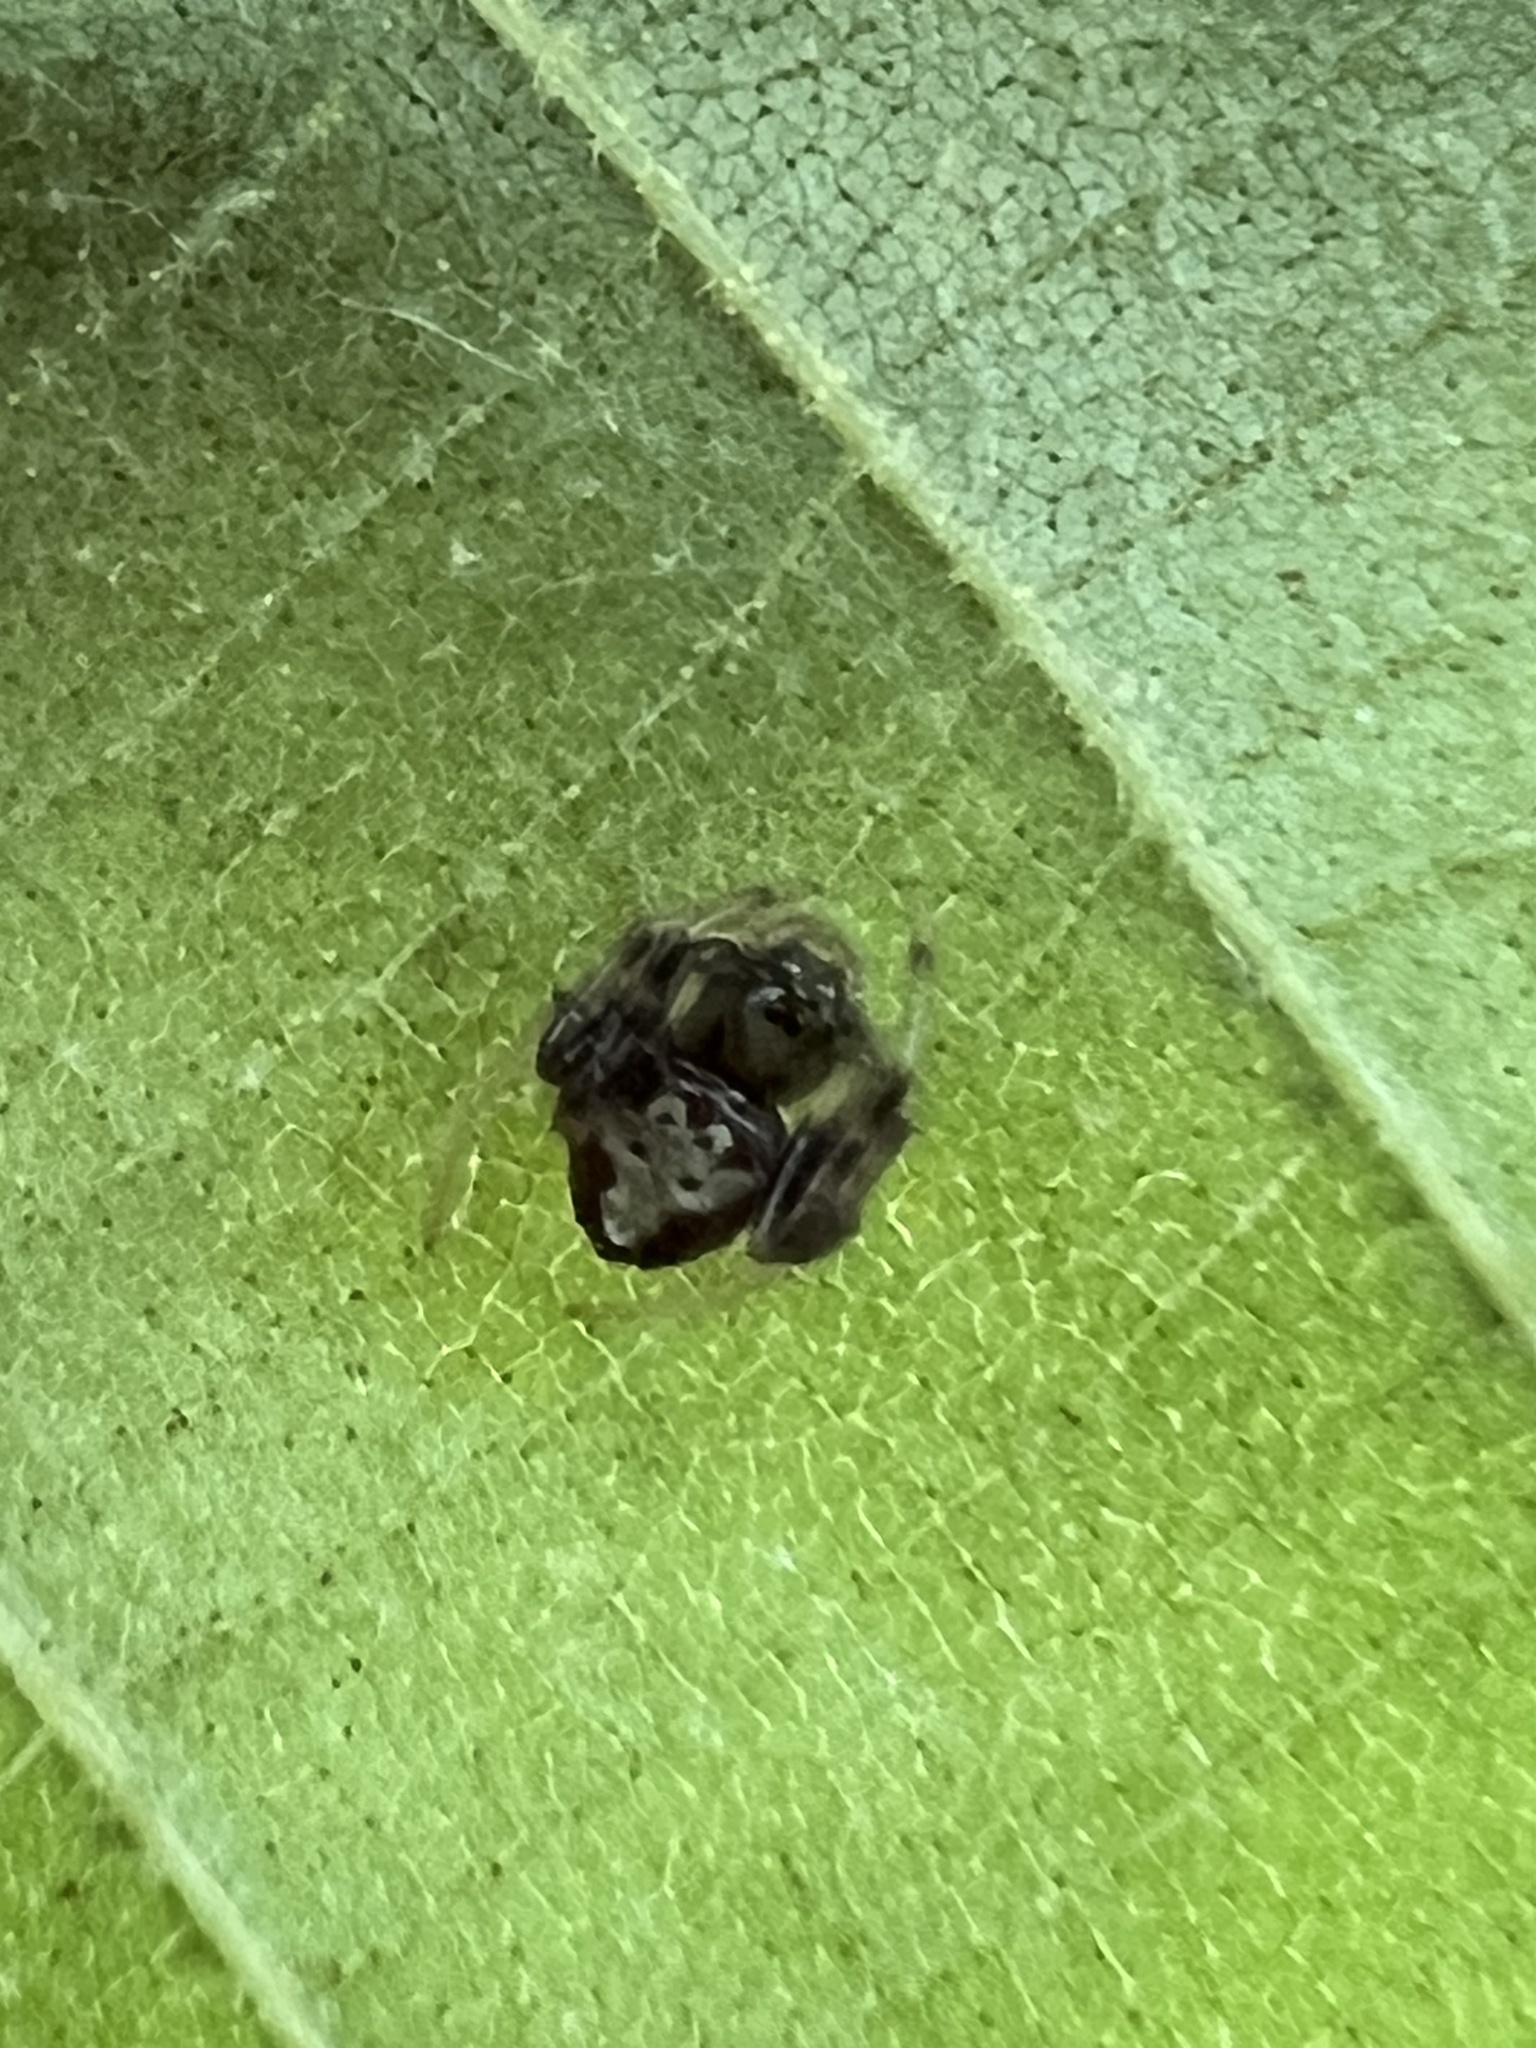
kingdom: Animalia
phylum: Arthropoda
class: Arachnida
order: Araneae
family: Araneidae
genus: Verrucosa
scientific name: Verrucosa arenata
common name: Orb weavers
